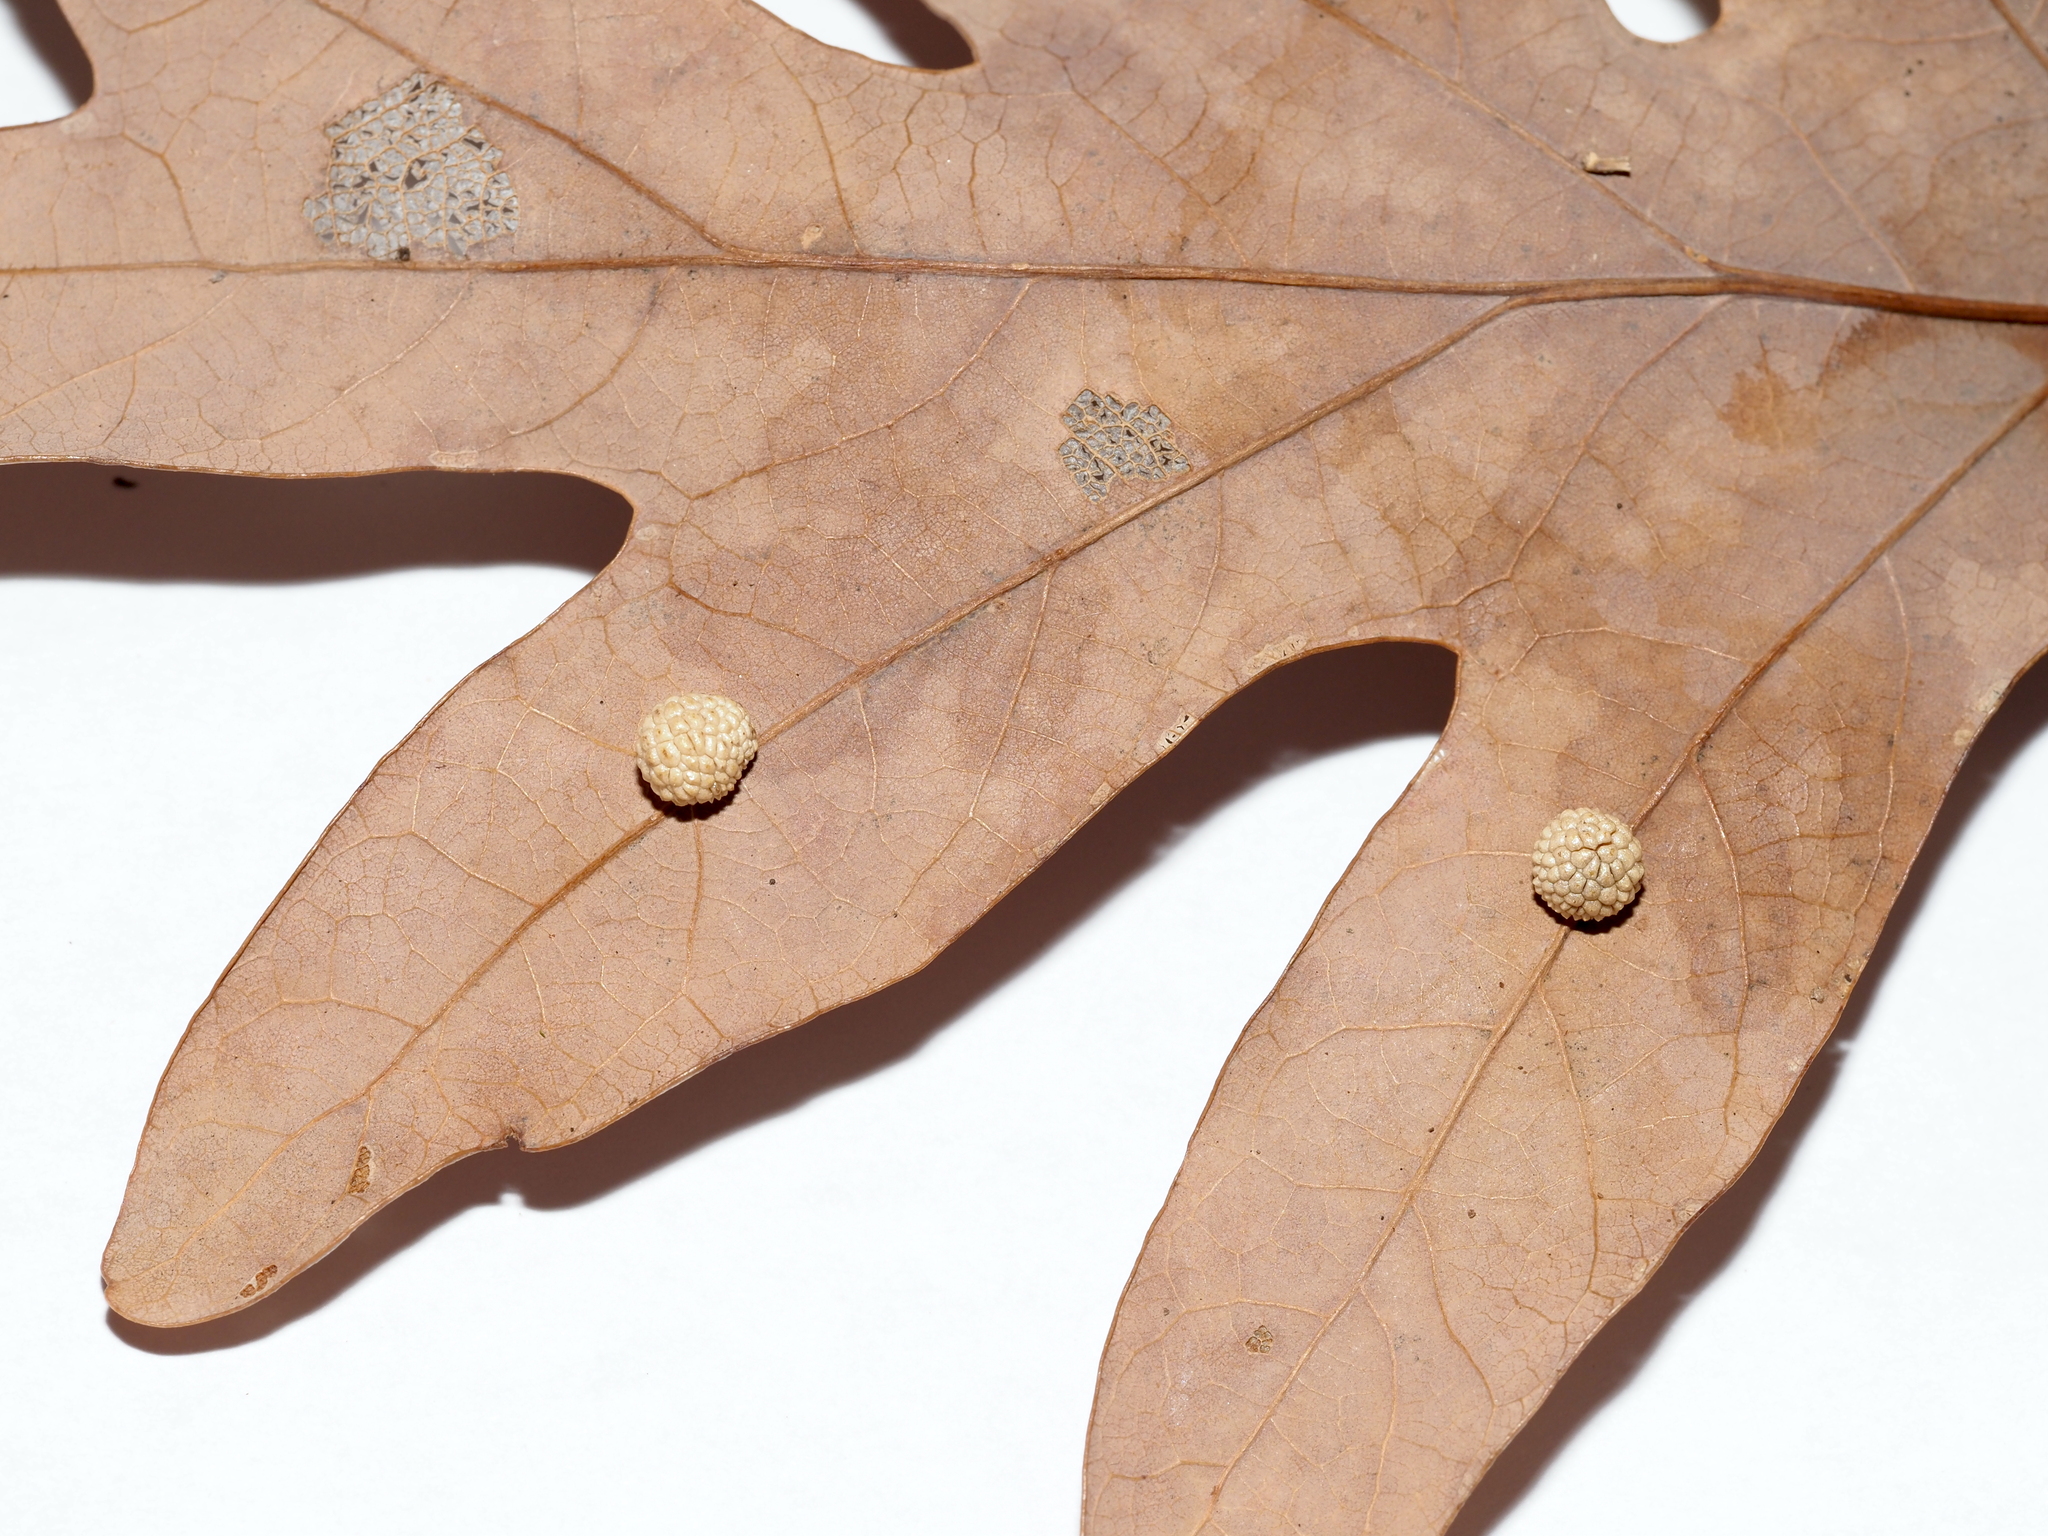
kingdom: Animalia
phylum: Arthropoda
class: Insecta
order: Hymenoptera
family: Cynipidae
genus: Acraspis
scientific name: Acraspis
